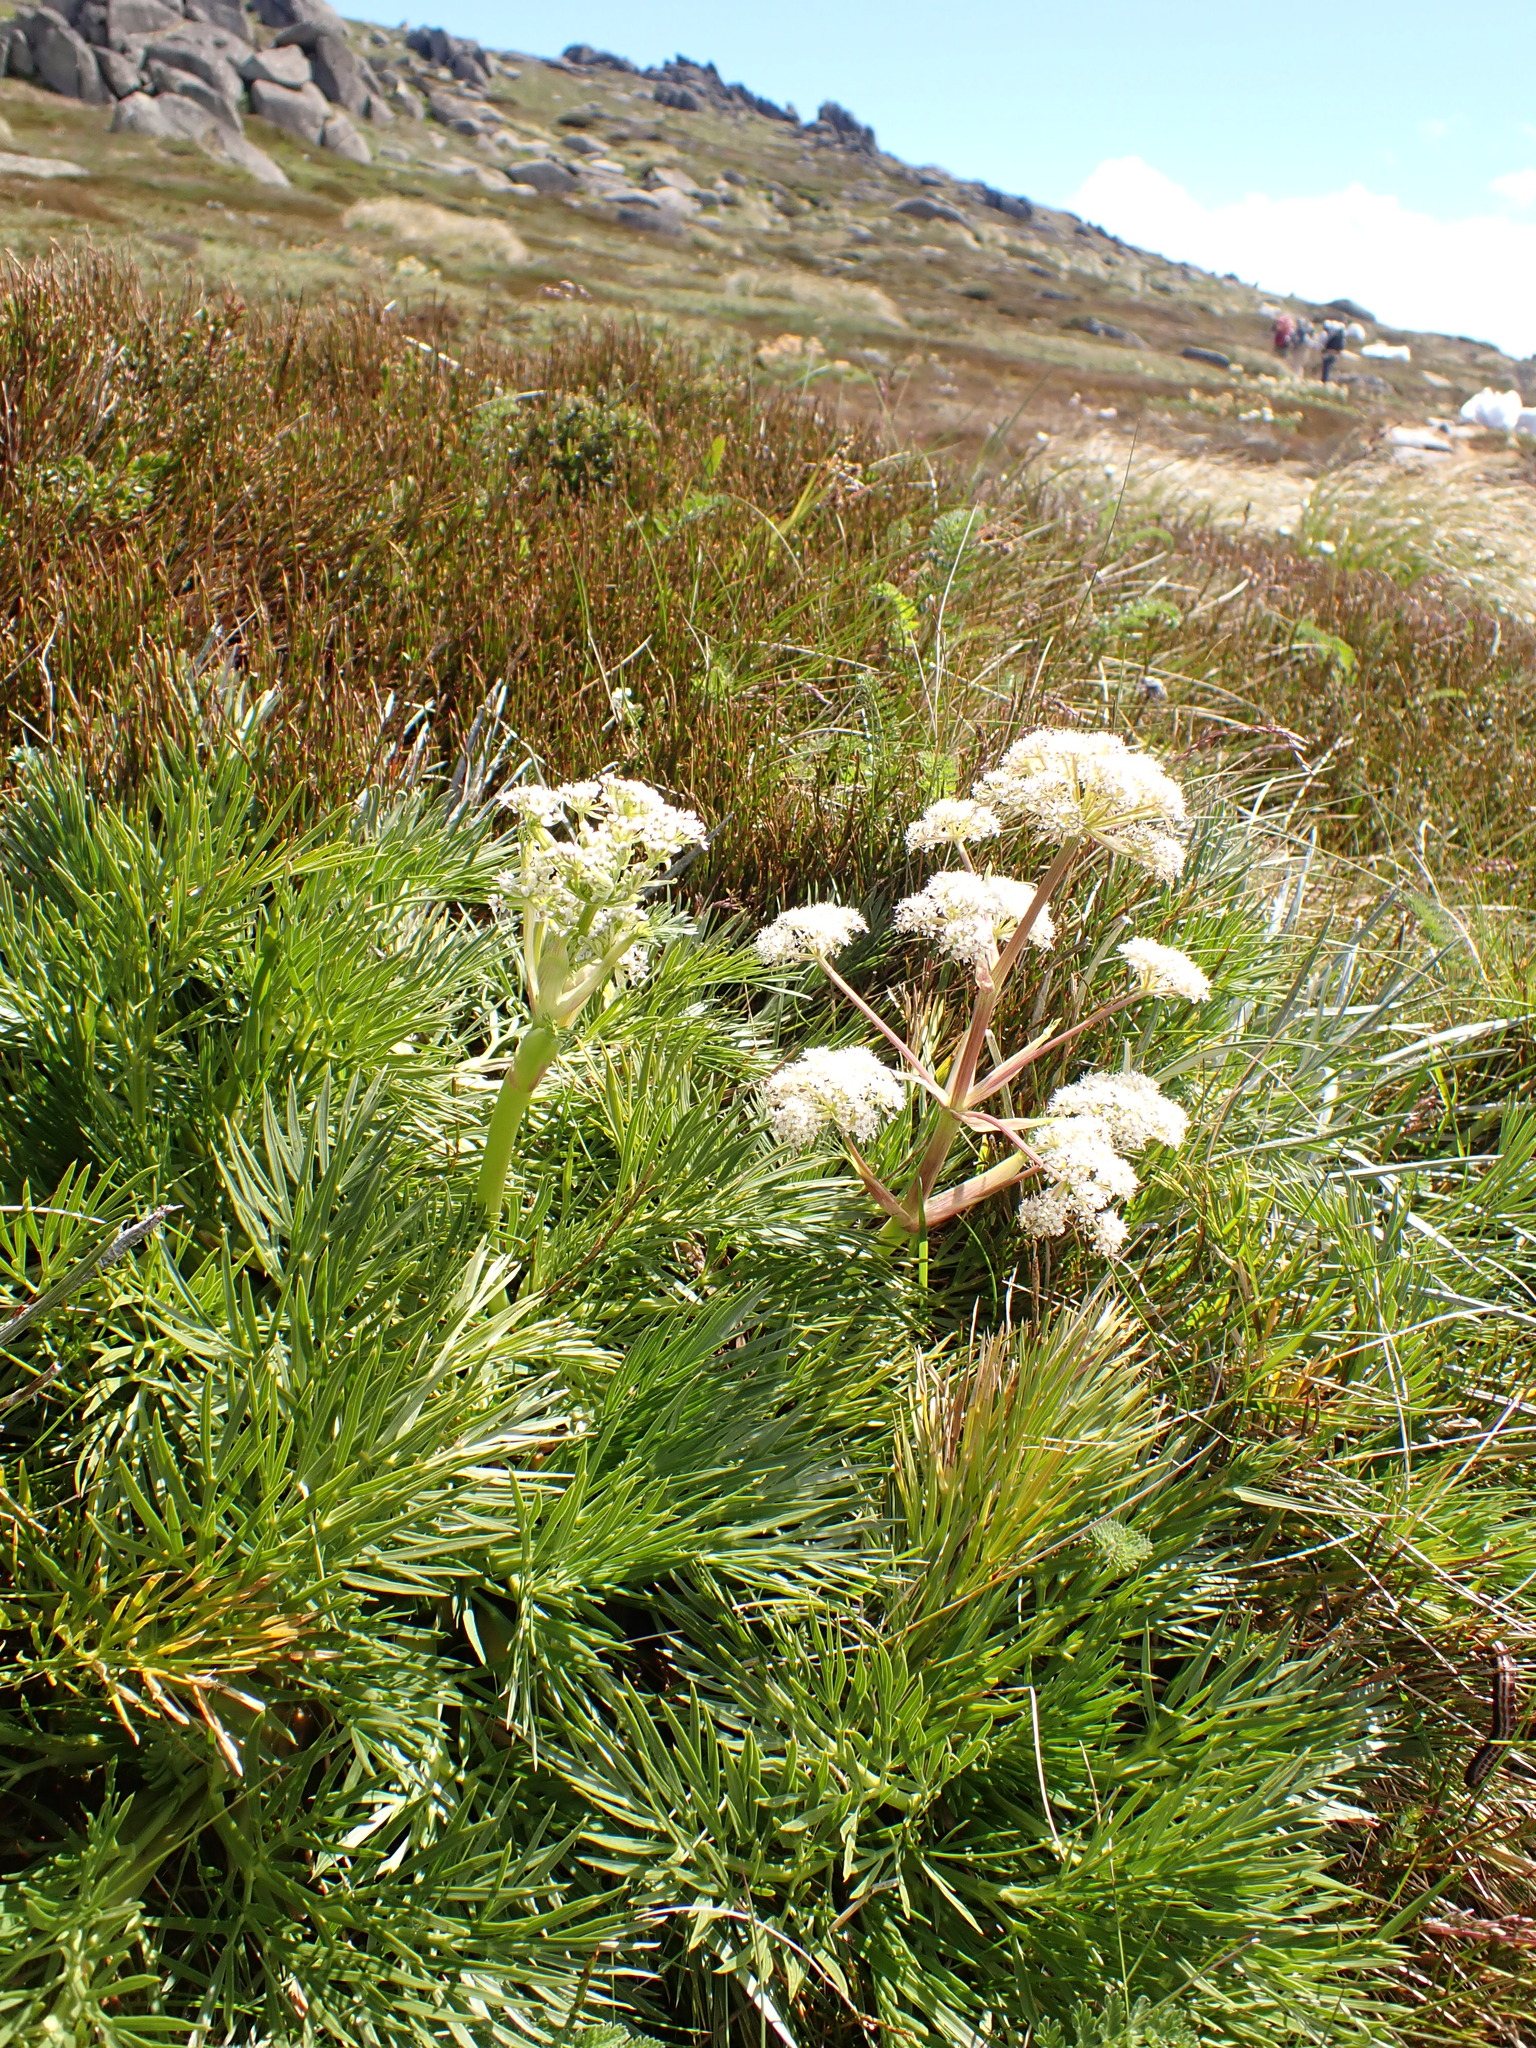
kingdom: Plantae
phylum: Tracheophyta
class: Magnoliopsida
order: Apiales
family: Apiaceae
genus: Aciphylla
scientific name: Aciphylla glacialis
